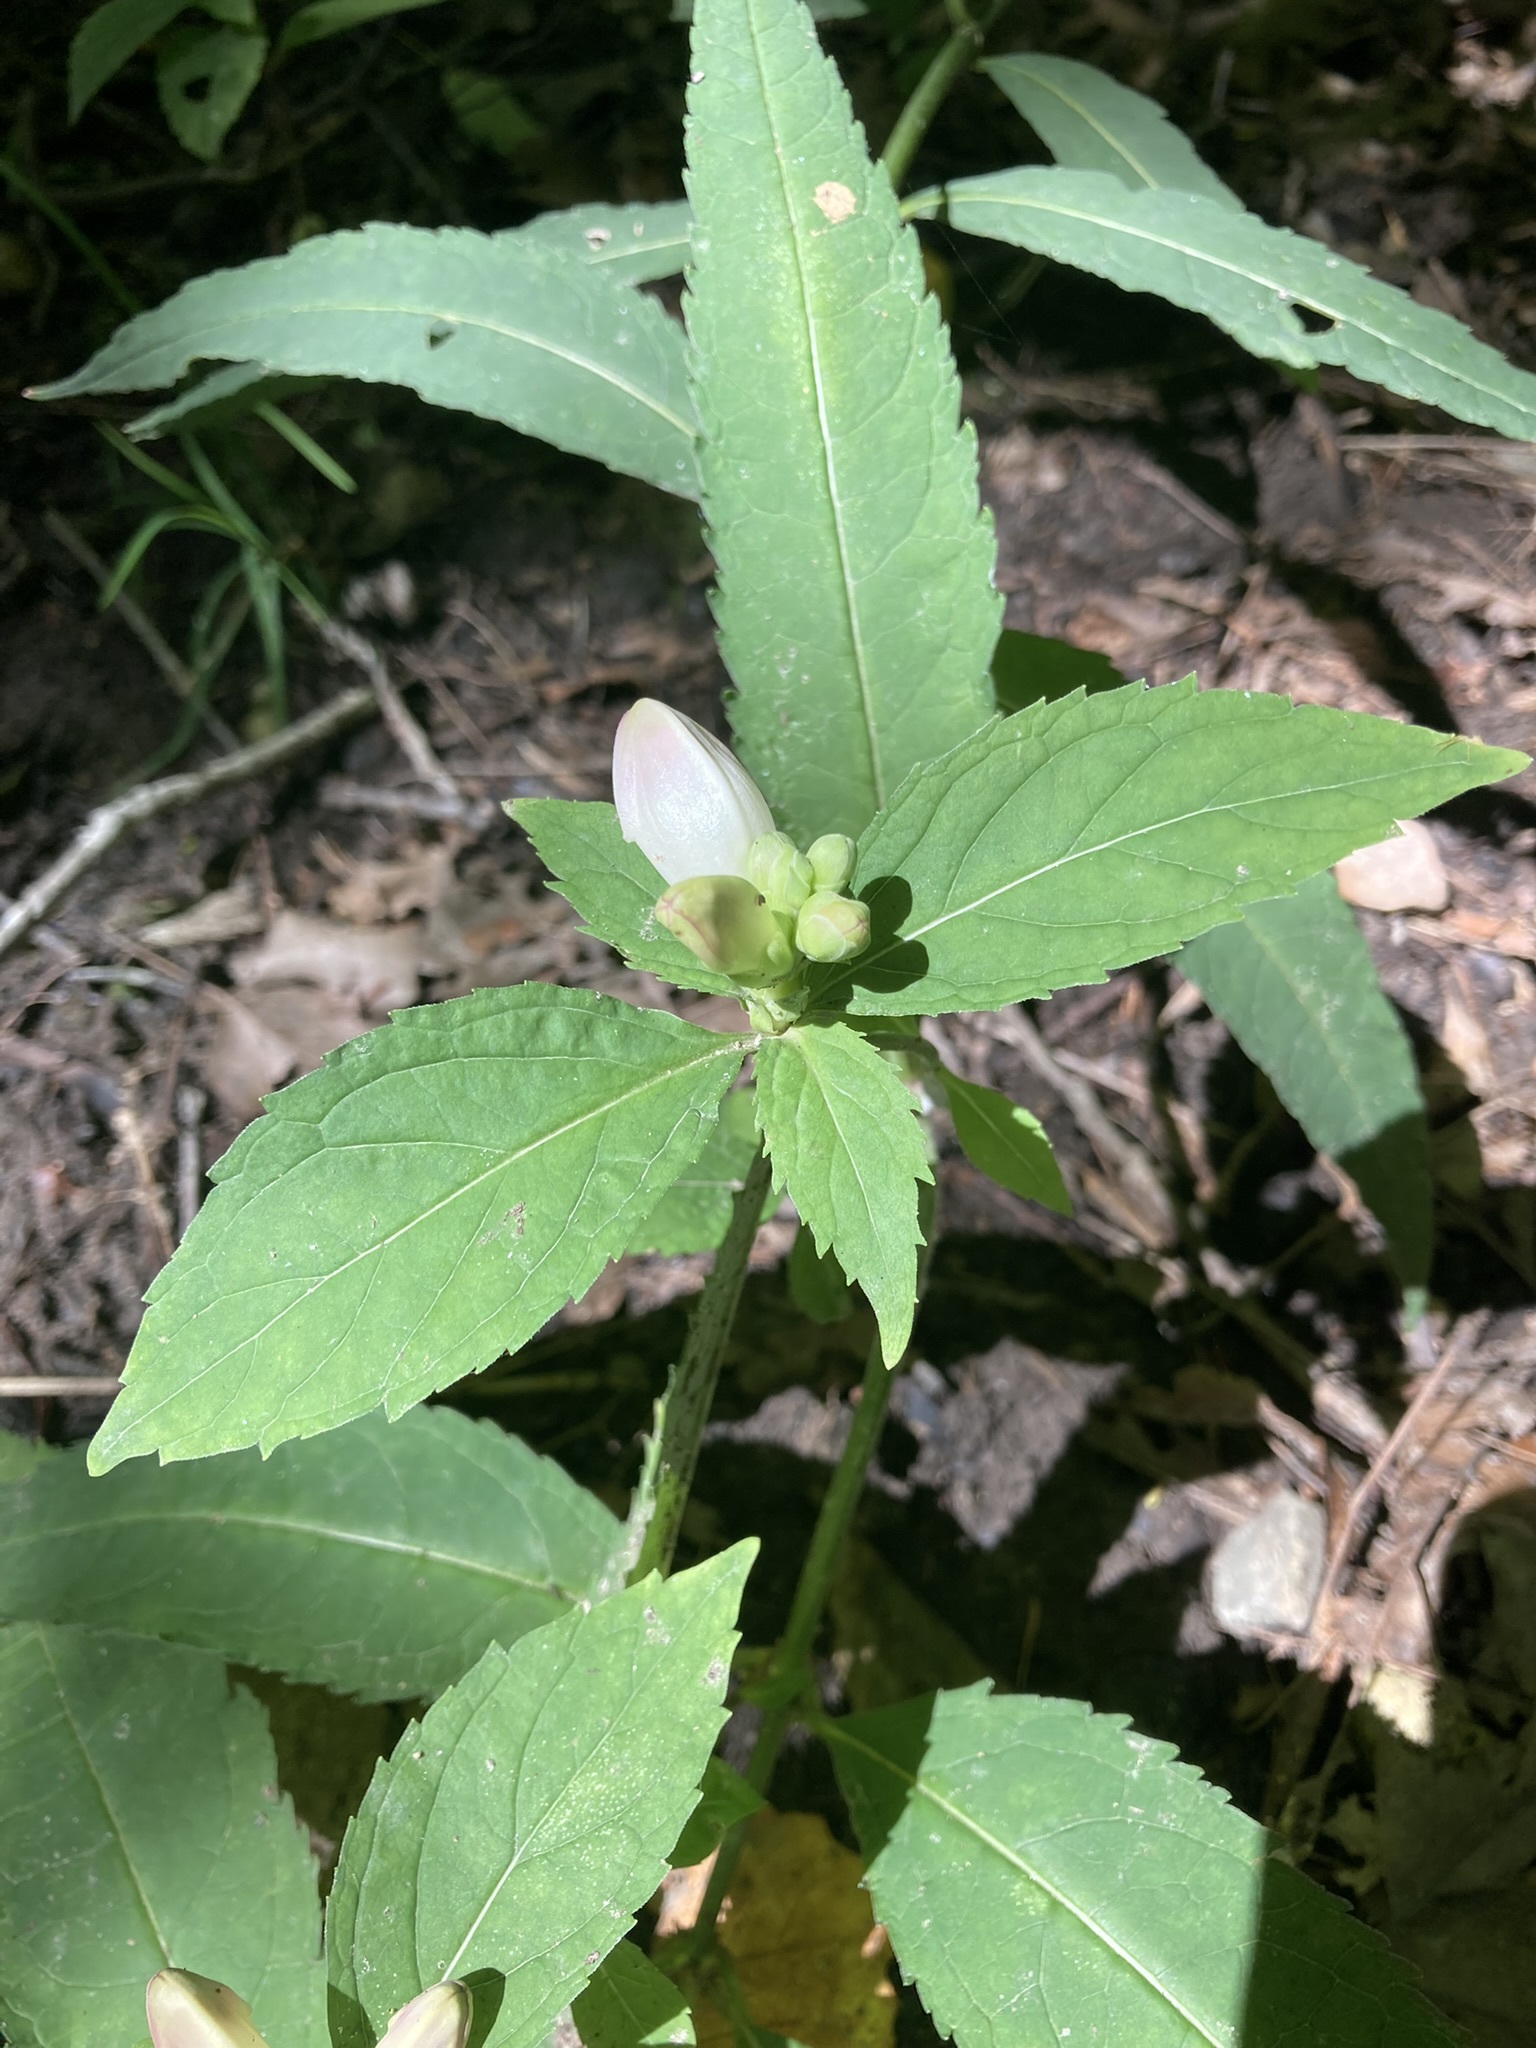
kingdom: Plantae
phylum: Tracheophyta
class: Magnoliopsida
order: Lamiales
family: Plantaginaceae
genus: Chelone
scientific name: Chelone glabra
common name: Snakehead
